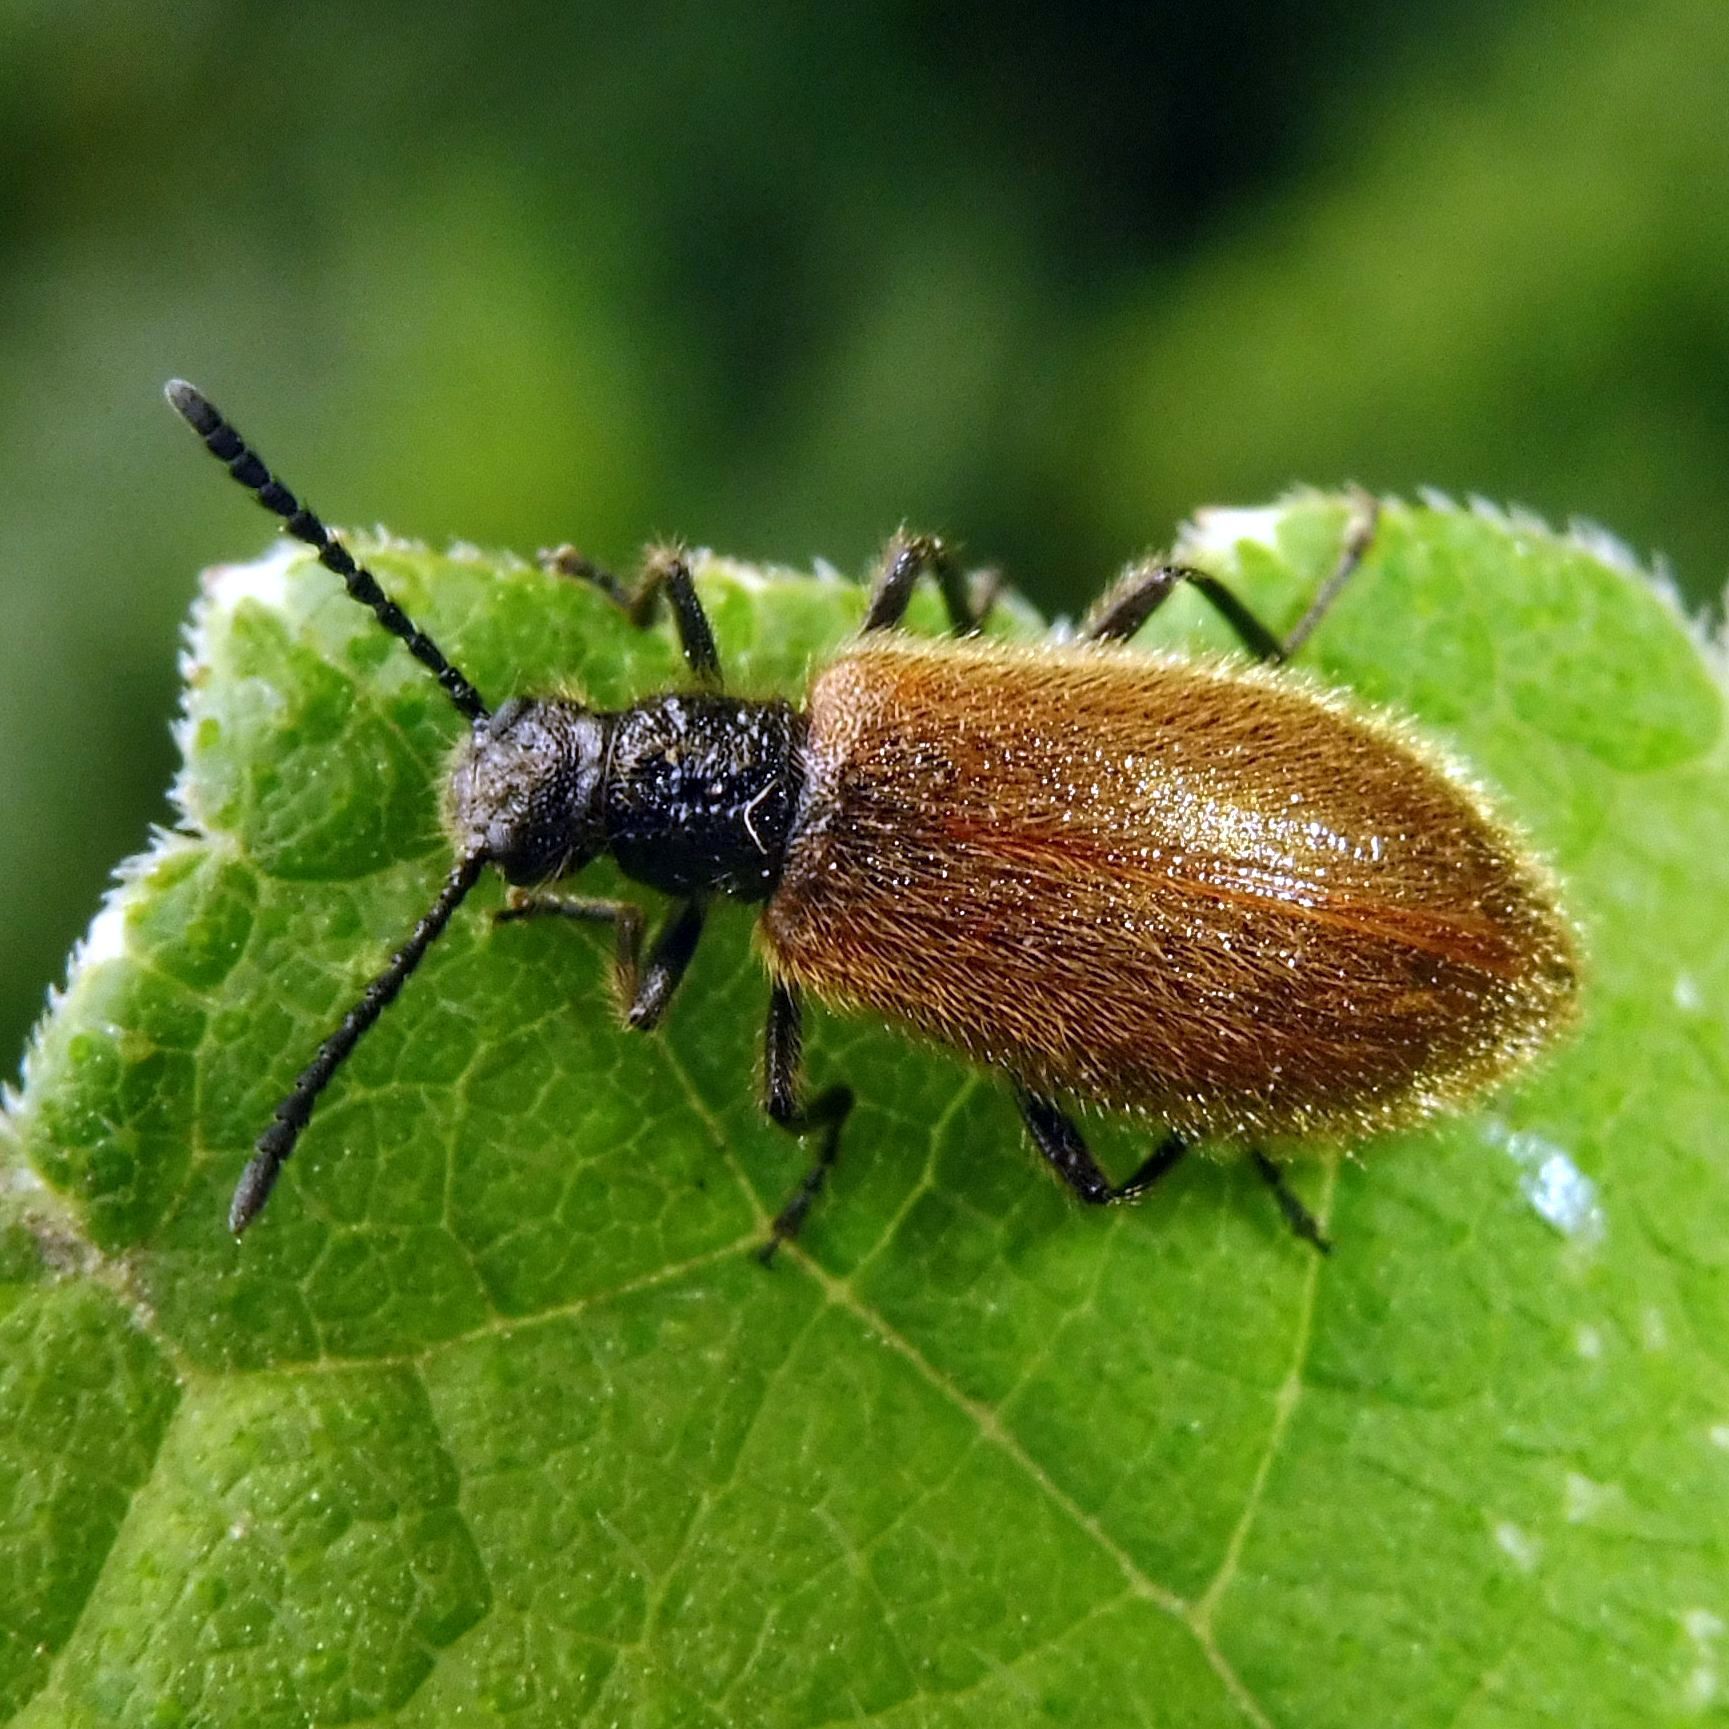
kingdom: Animalia
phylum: Arthropoda
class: Insecta
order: Coleoptera
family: Tenebrionidae
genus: Lagria
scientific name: Lagria hirta
